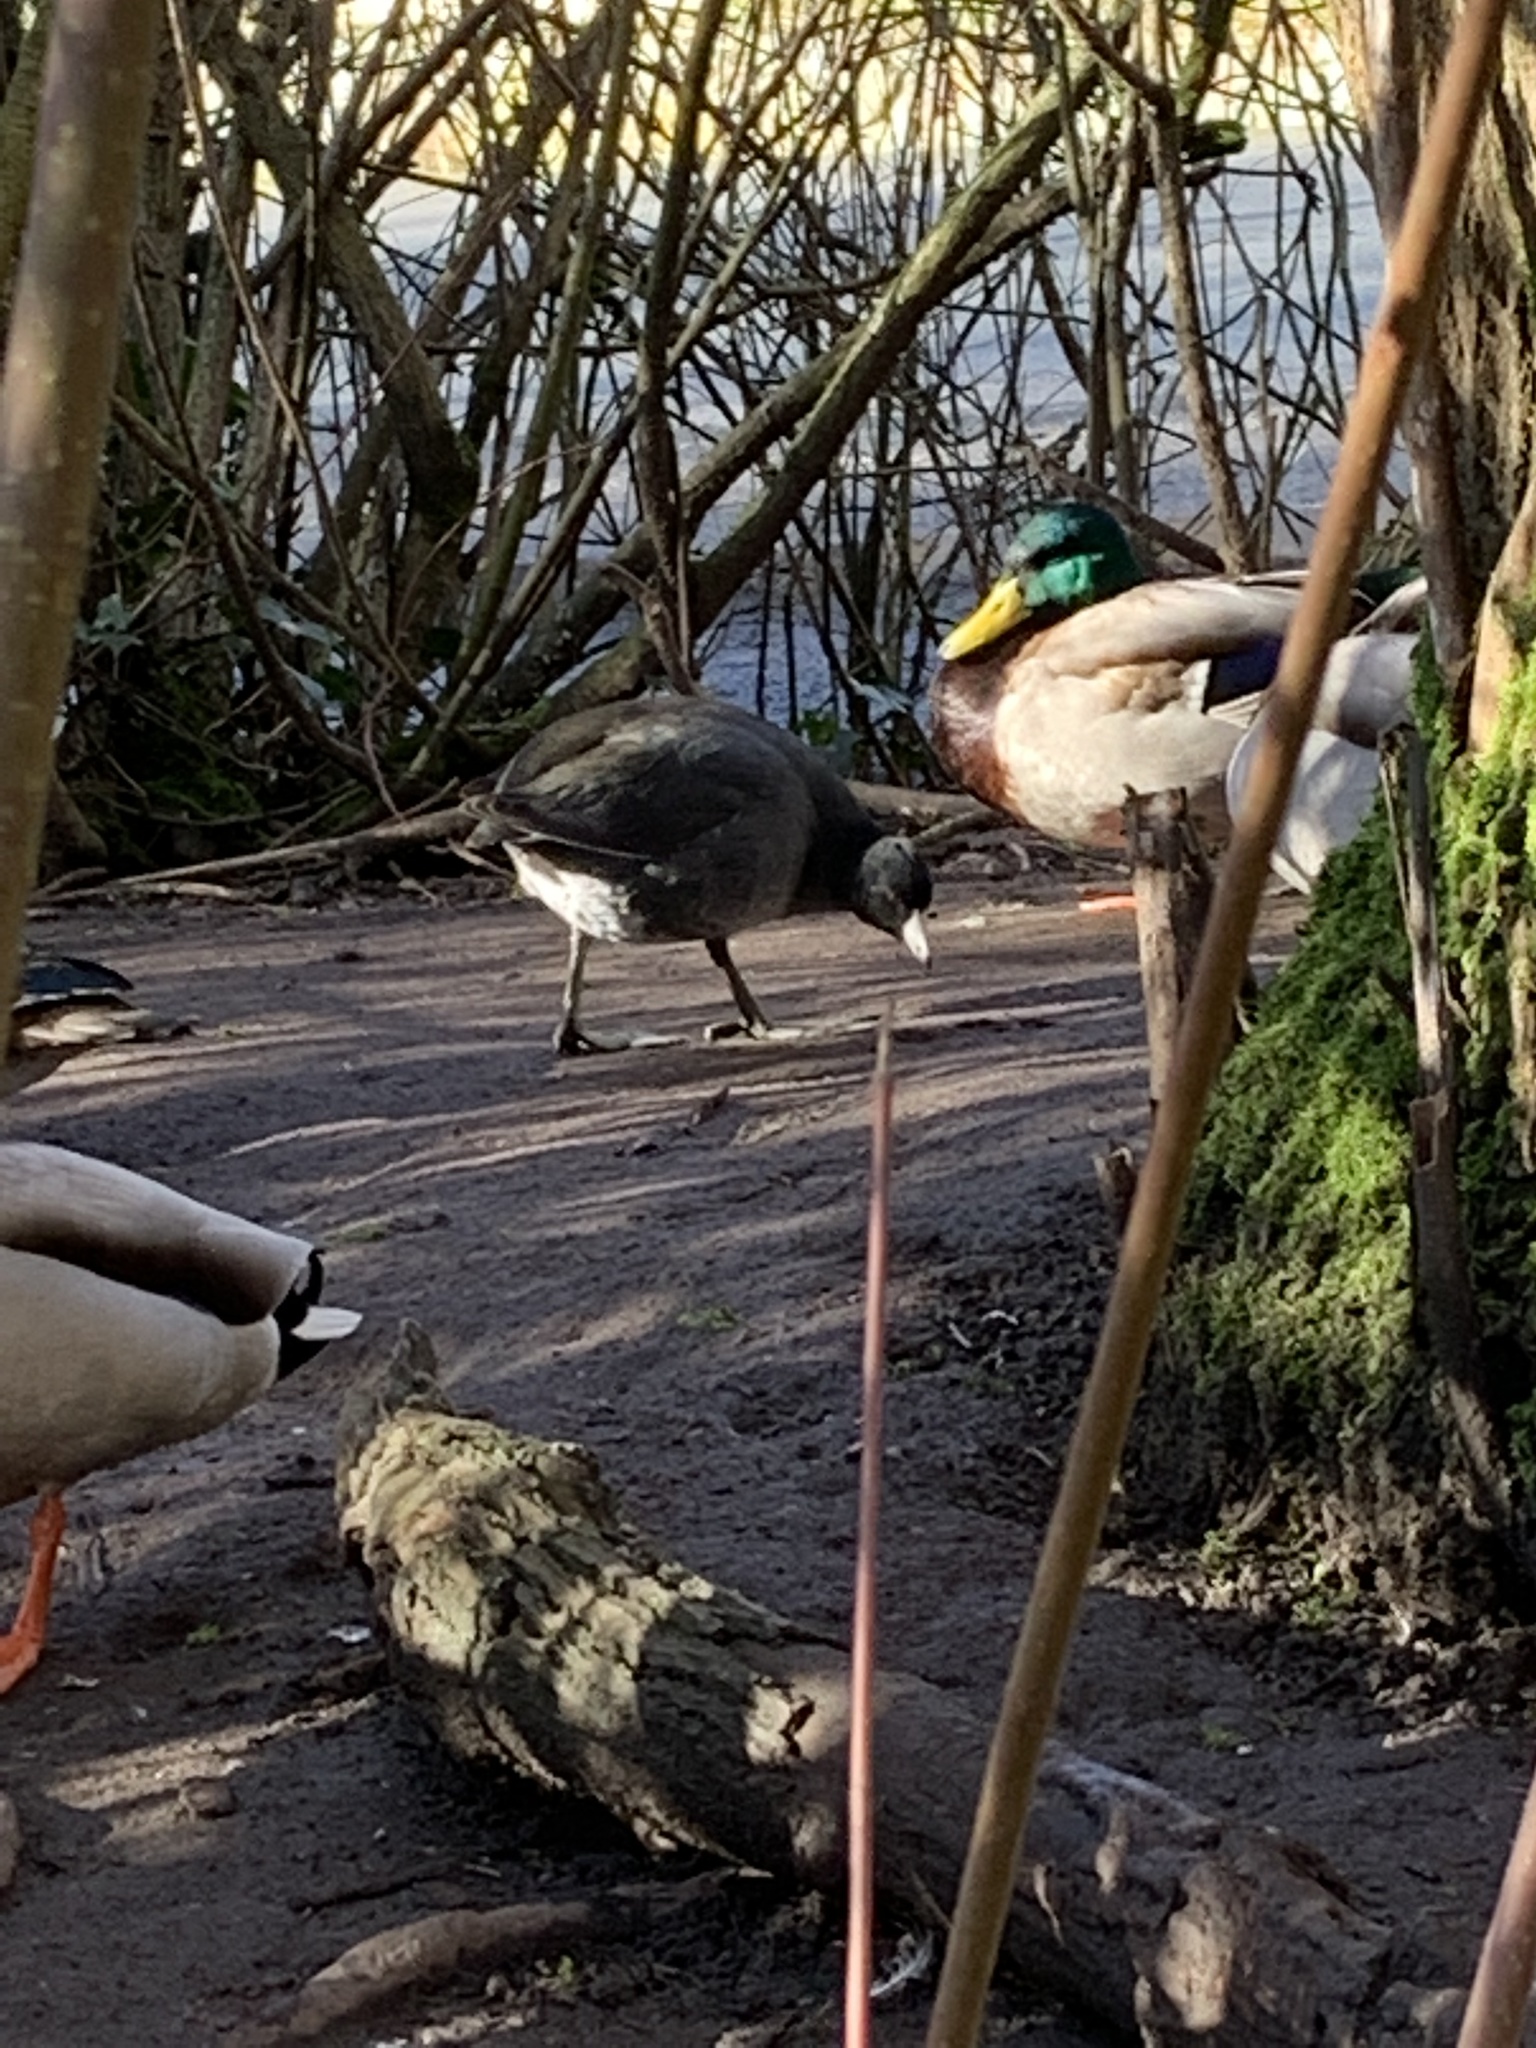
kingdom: Animalia
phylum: Chordata
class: Aves
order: Gruiformes
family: Rallidae
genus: Fulica
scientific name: Fulica americana
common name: American coot
